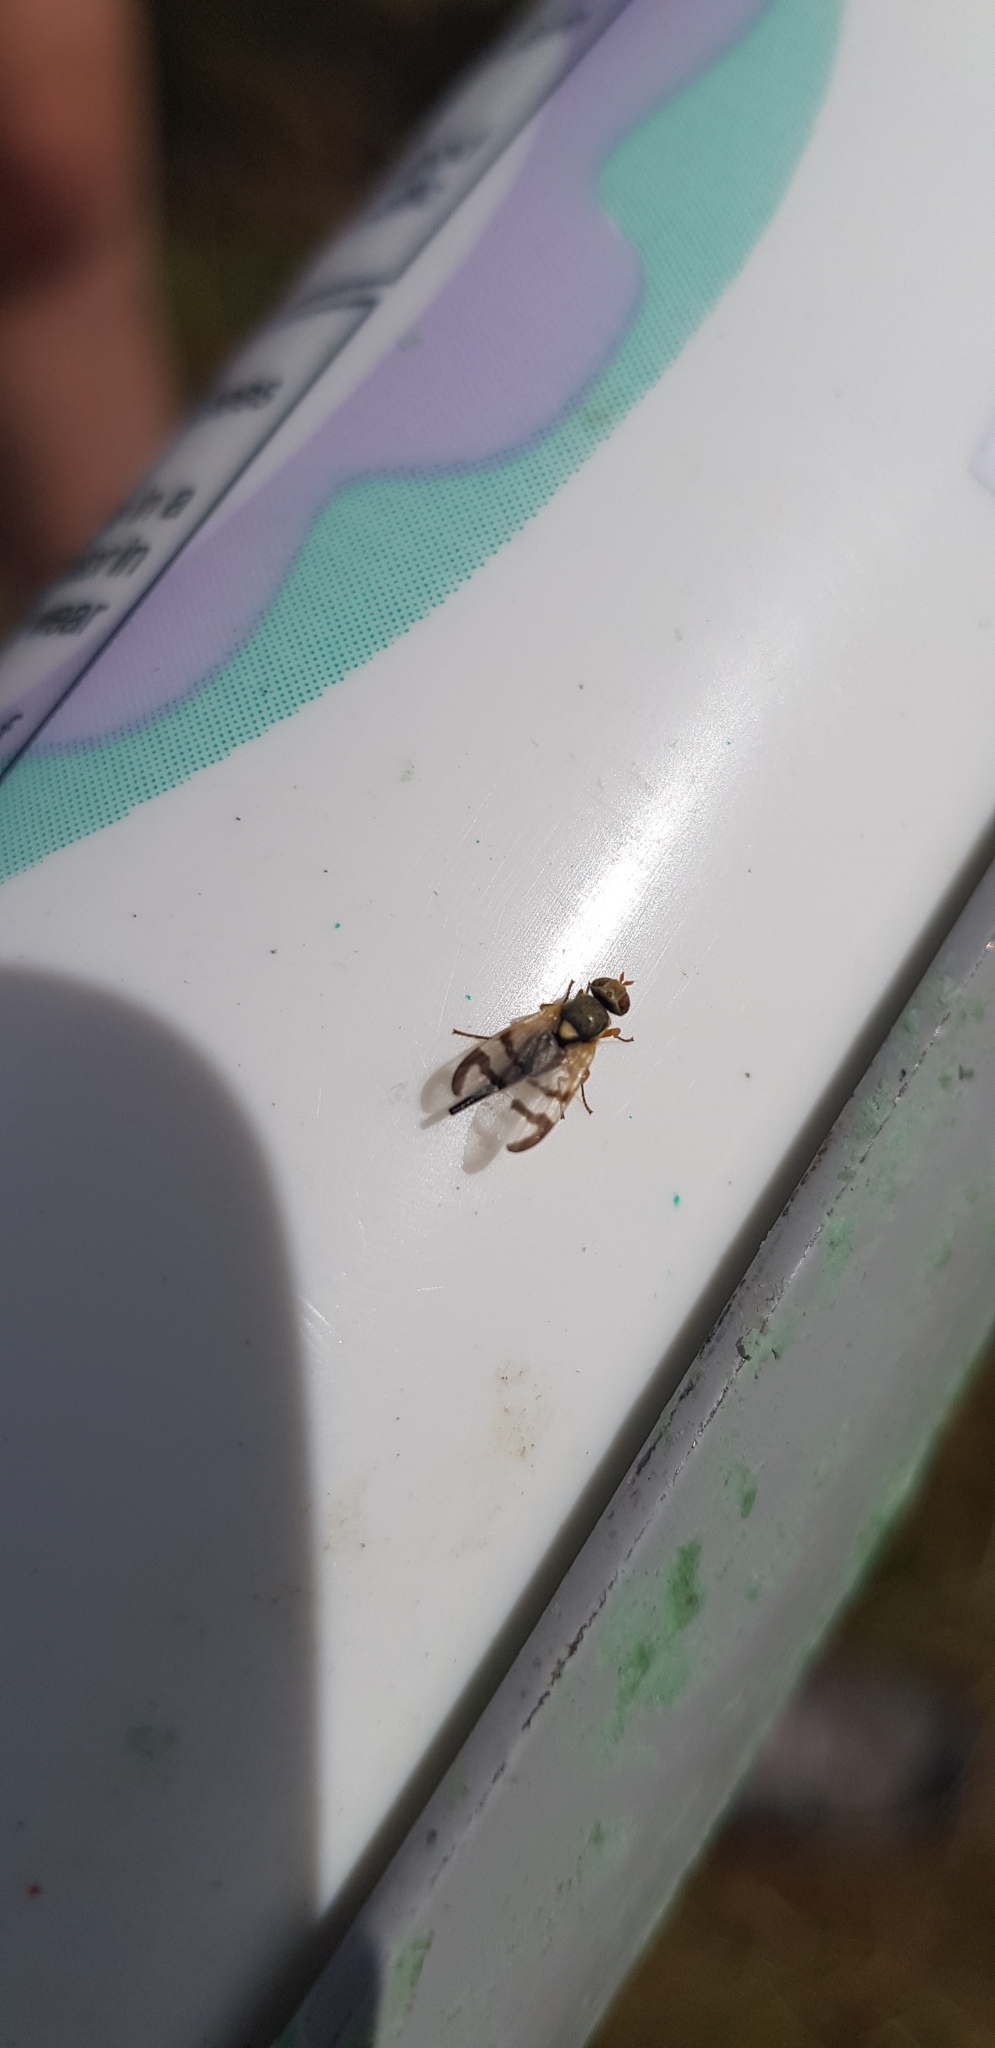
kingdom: Animalia
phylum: Arthropoda
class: Insecta
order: Diptera
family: Tephritidae
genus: Urophora
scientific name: Urophora stylata
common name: Fruit fly
